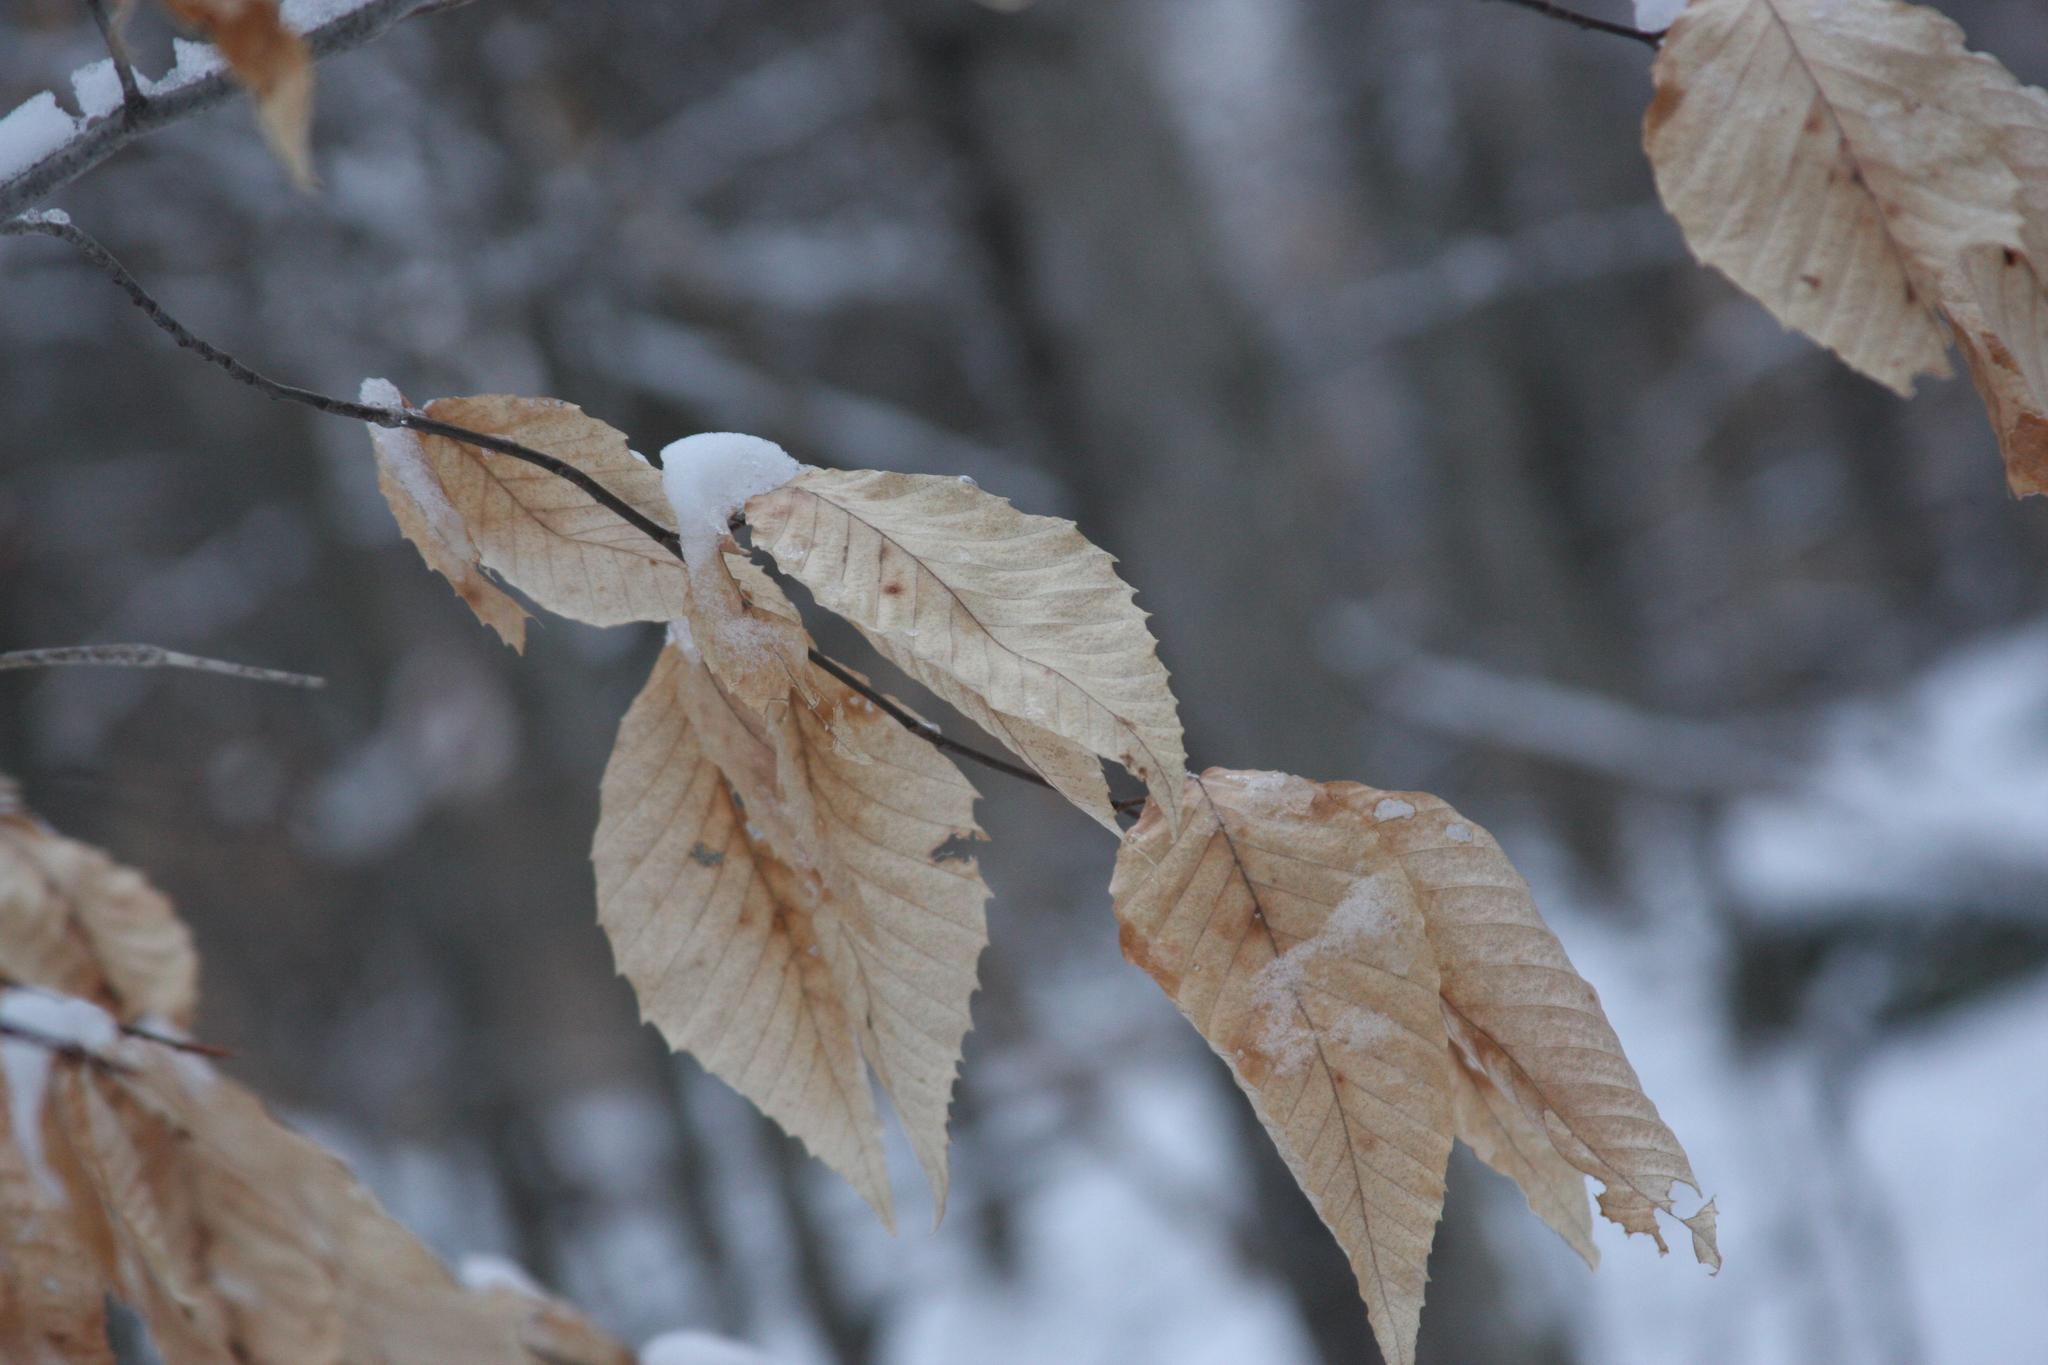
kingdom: Plantae
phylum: Tracheophyta
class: Magnoliopsida
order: Fagales
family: Fagaceae
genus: Fagus
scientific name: Fagus grandifolia
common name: American beech
